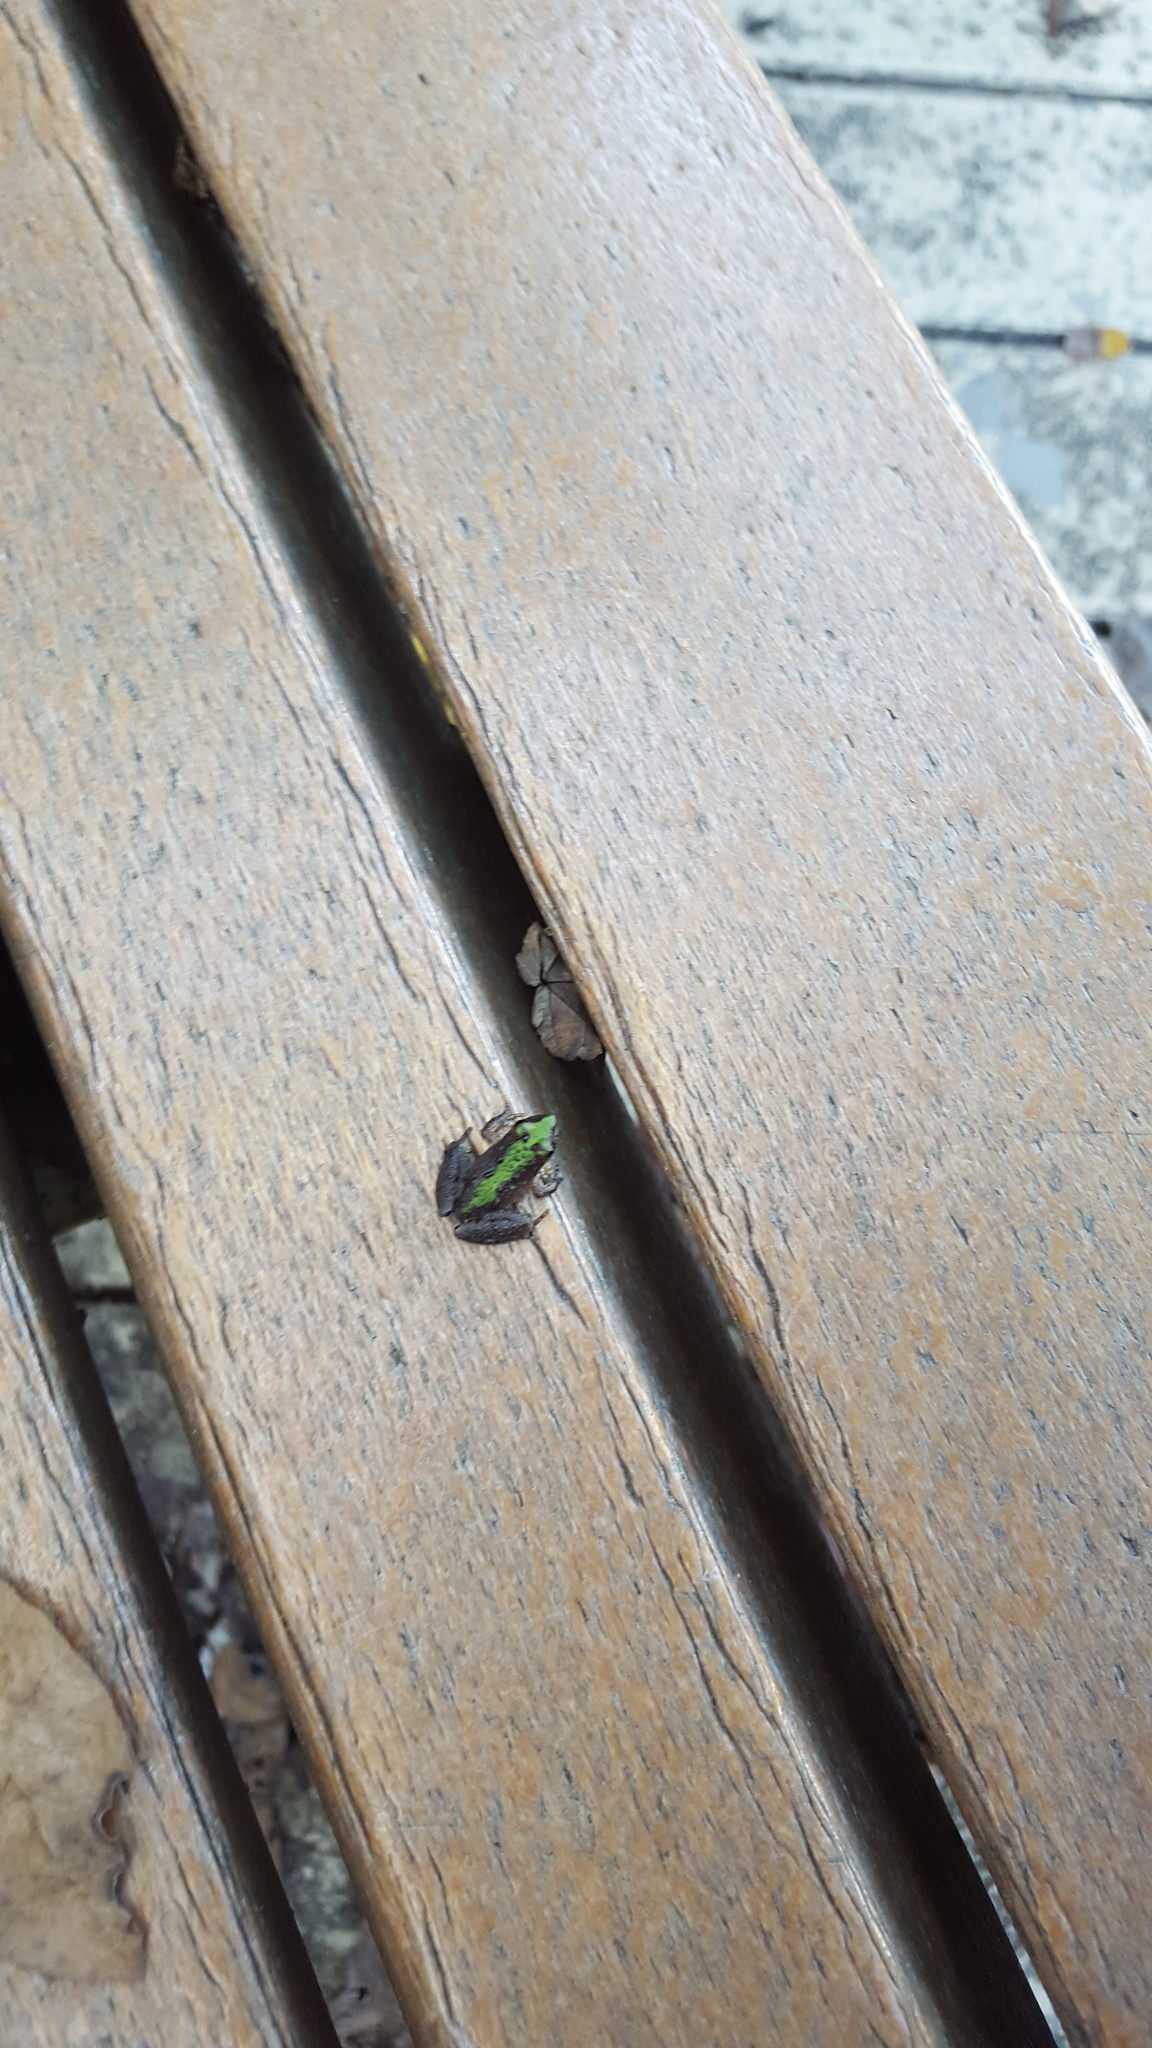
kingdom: Animalia
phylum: Chordata
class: Amphibia
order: Anura
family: Hylidae
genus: Acris
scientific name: Acris crepitans
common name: Northern cricket frog
